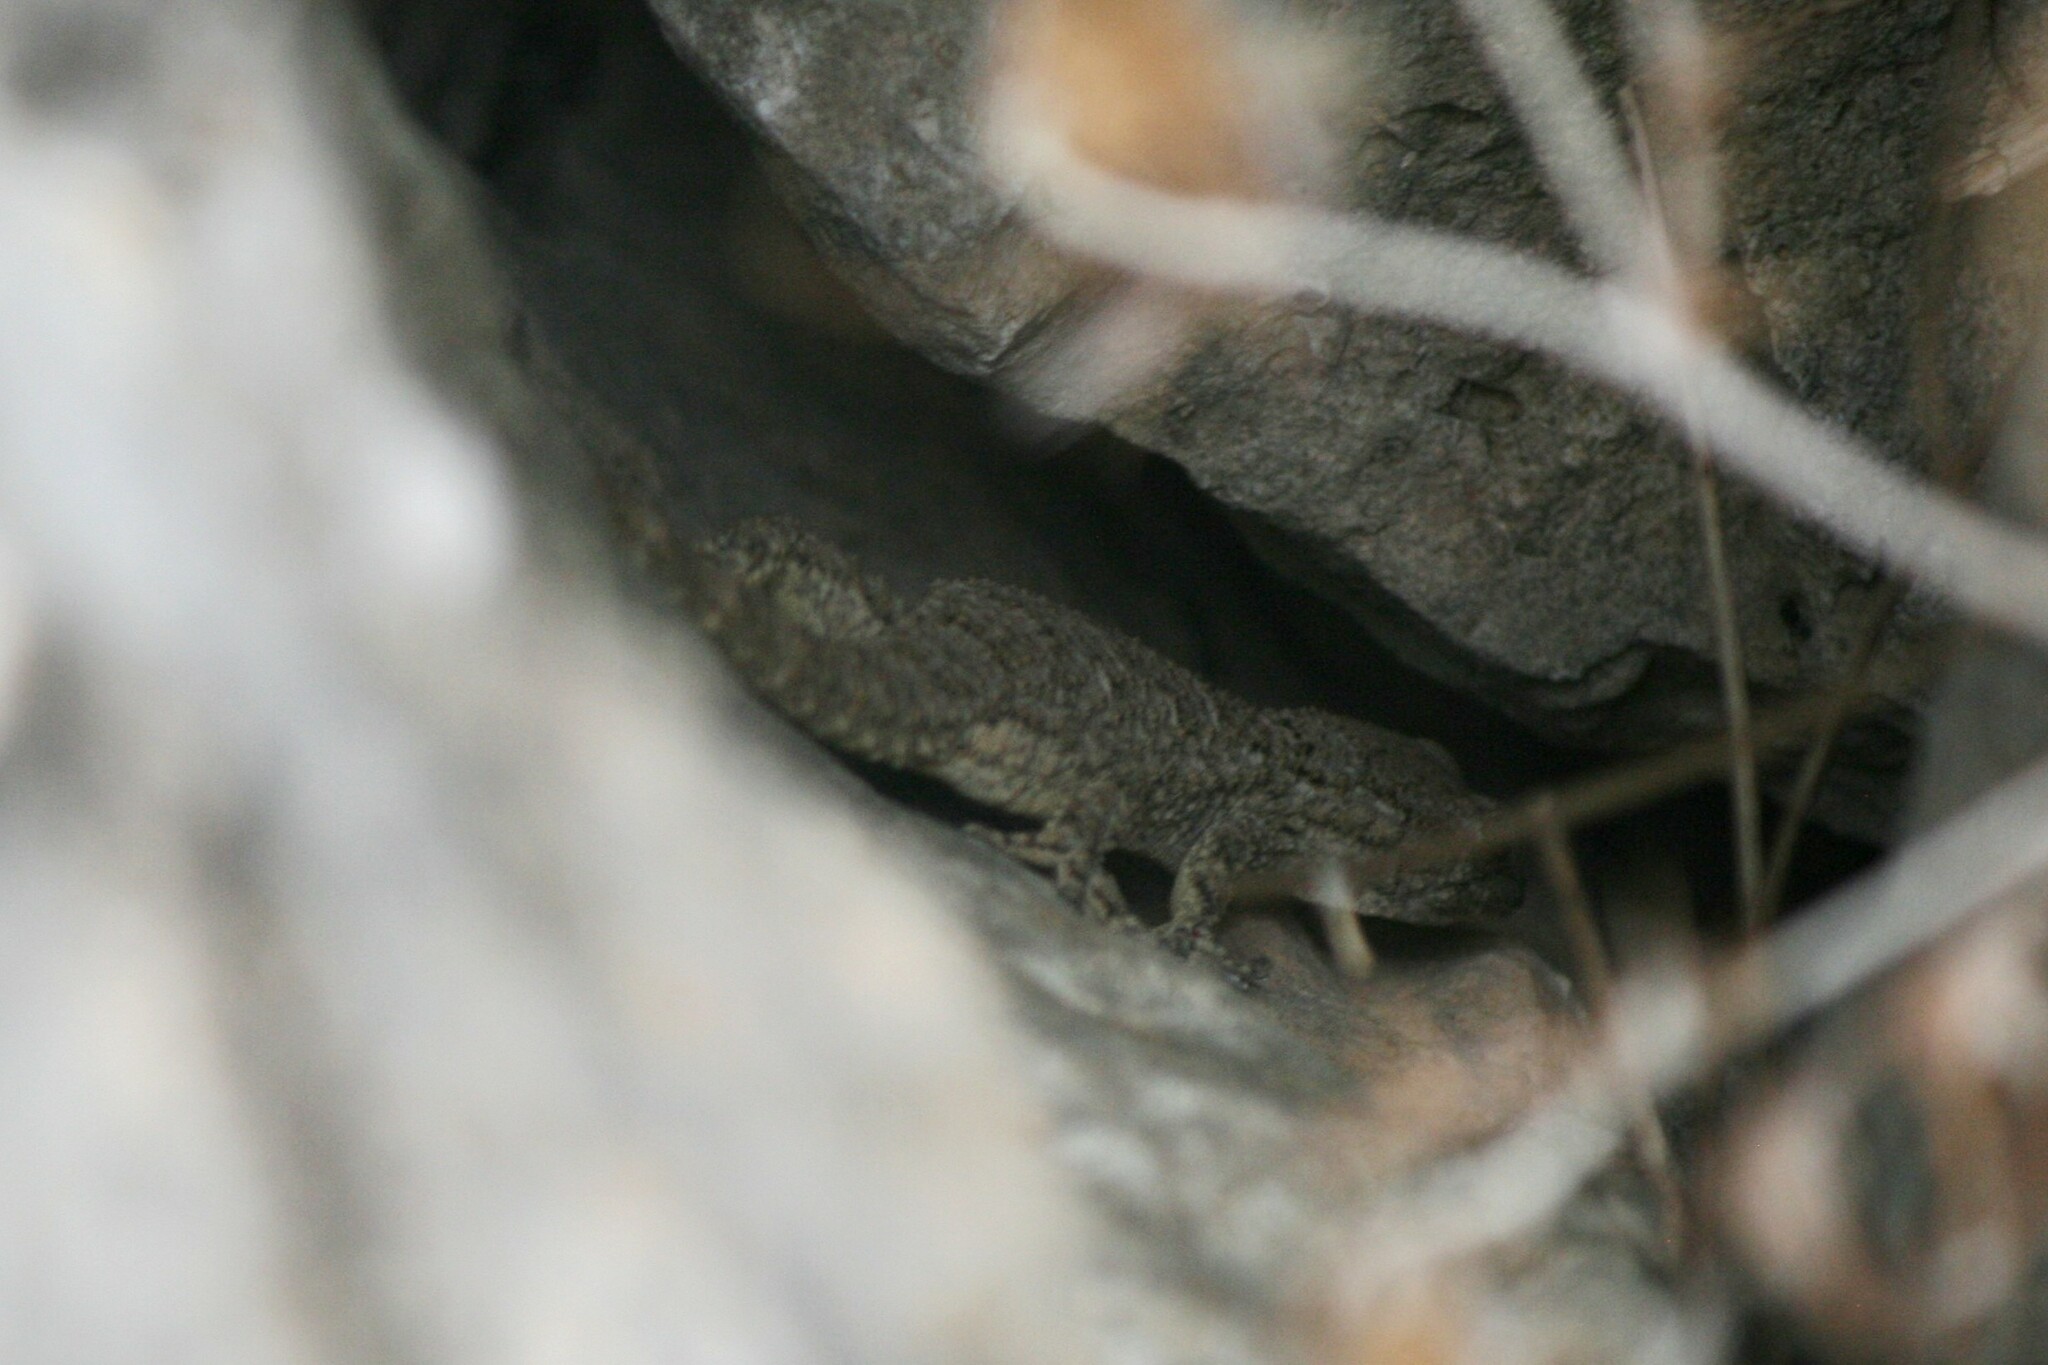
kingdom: Animalia
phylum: Chordata
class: Squamata
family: Phyllodactylidae
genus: Tarentola
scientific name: Tarentola mauritanica
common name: Moorish gecko
